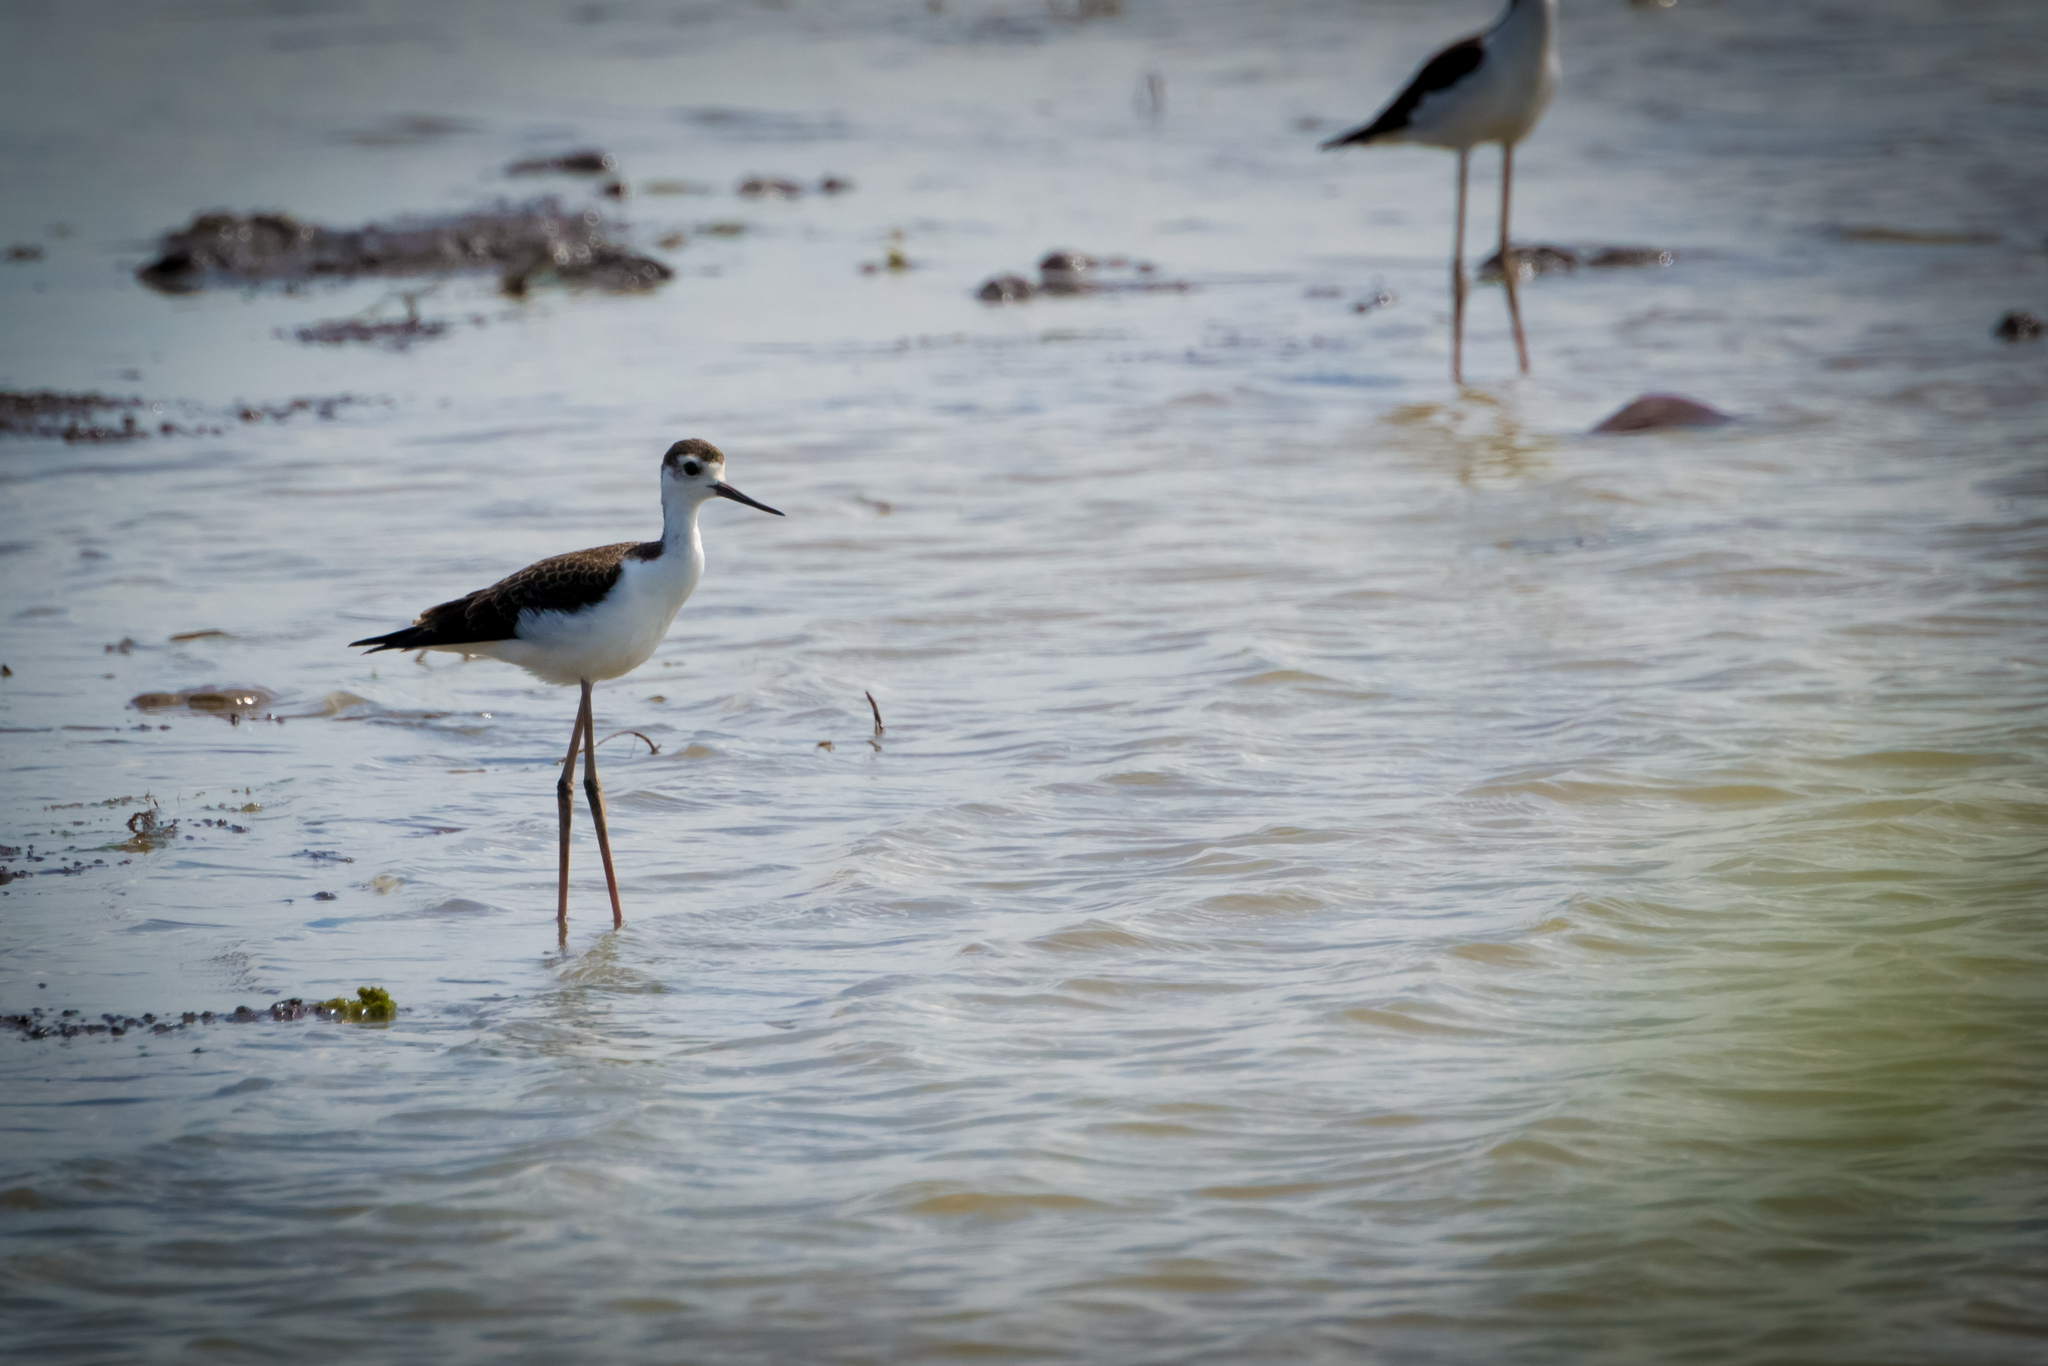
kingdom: Animalia
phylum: Chordata
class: Aves
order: Charadriiformes
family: Recurvirostridae
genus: Himantopus
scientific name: Himantopus mexicanus
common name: Black-necked stilt
